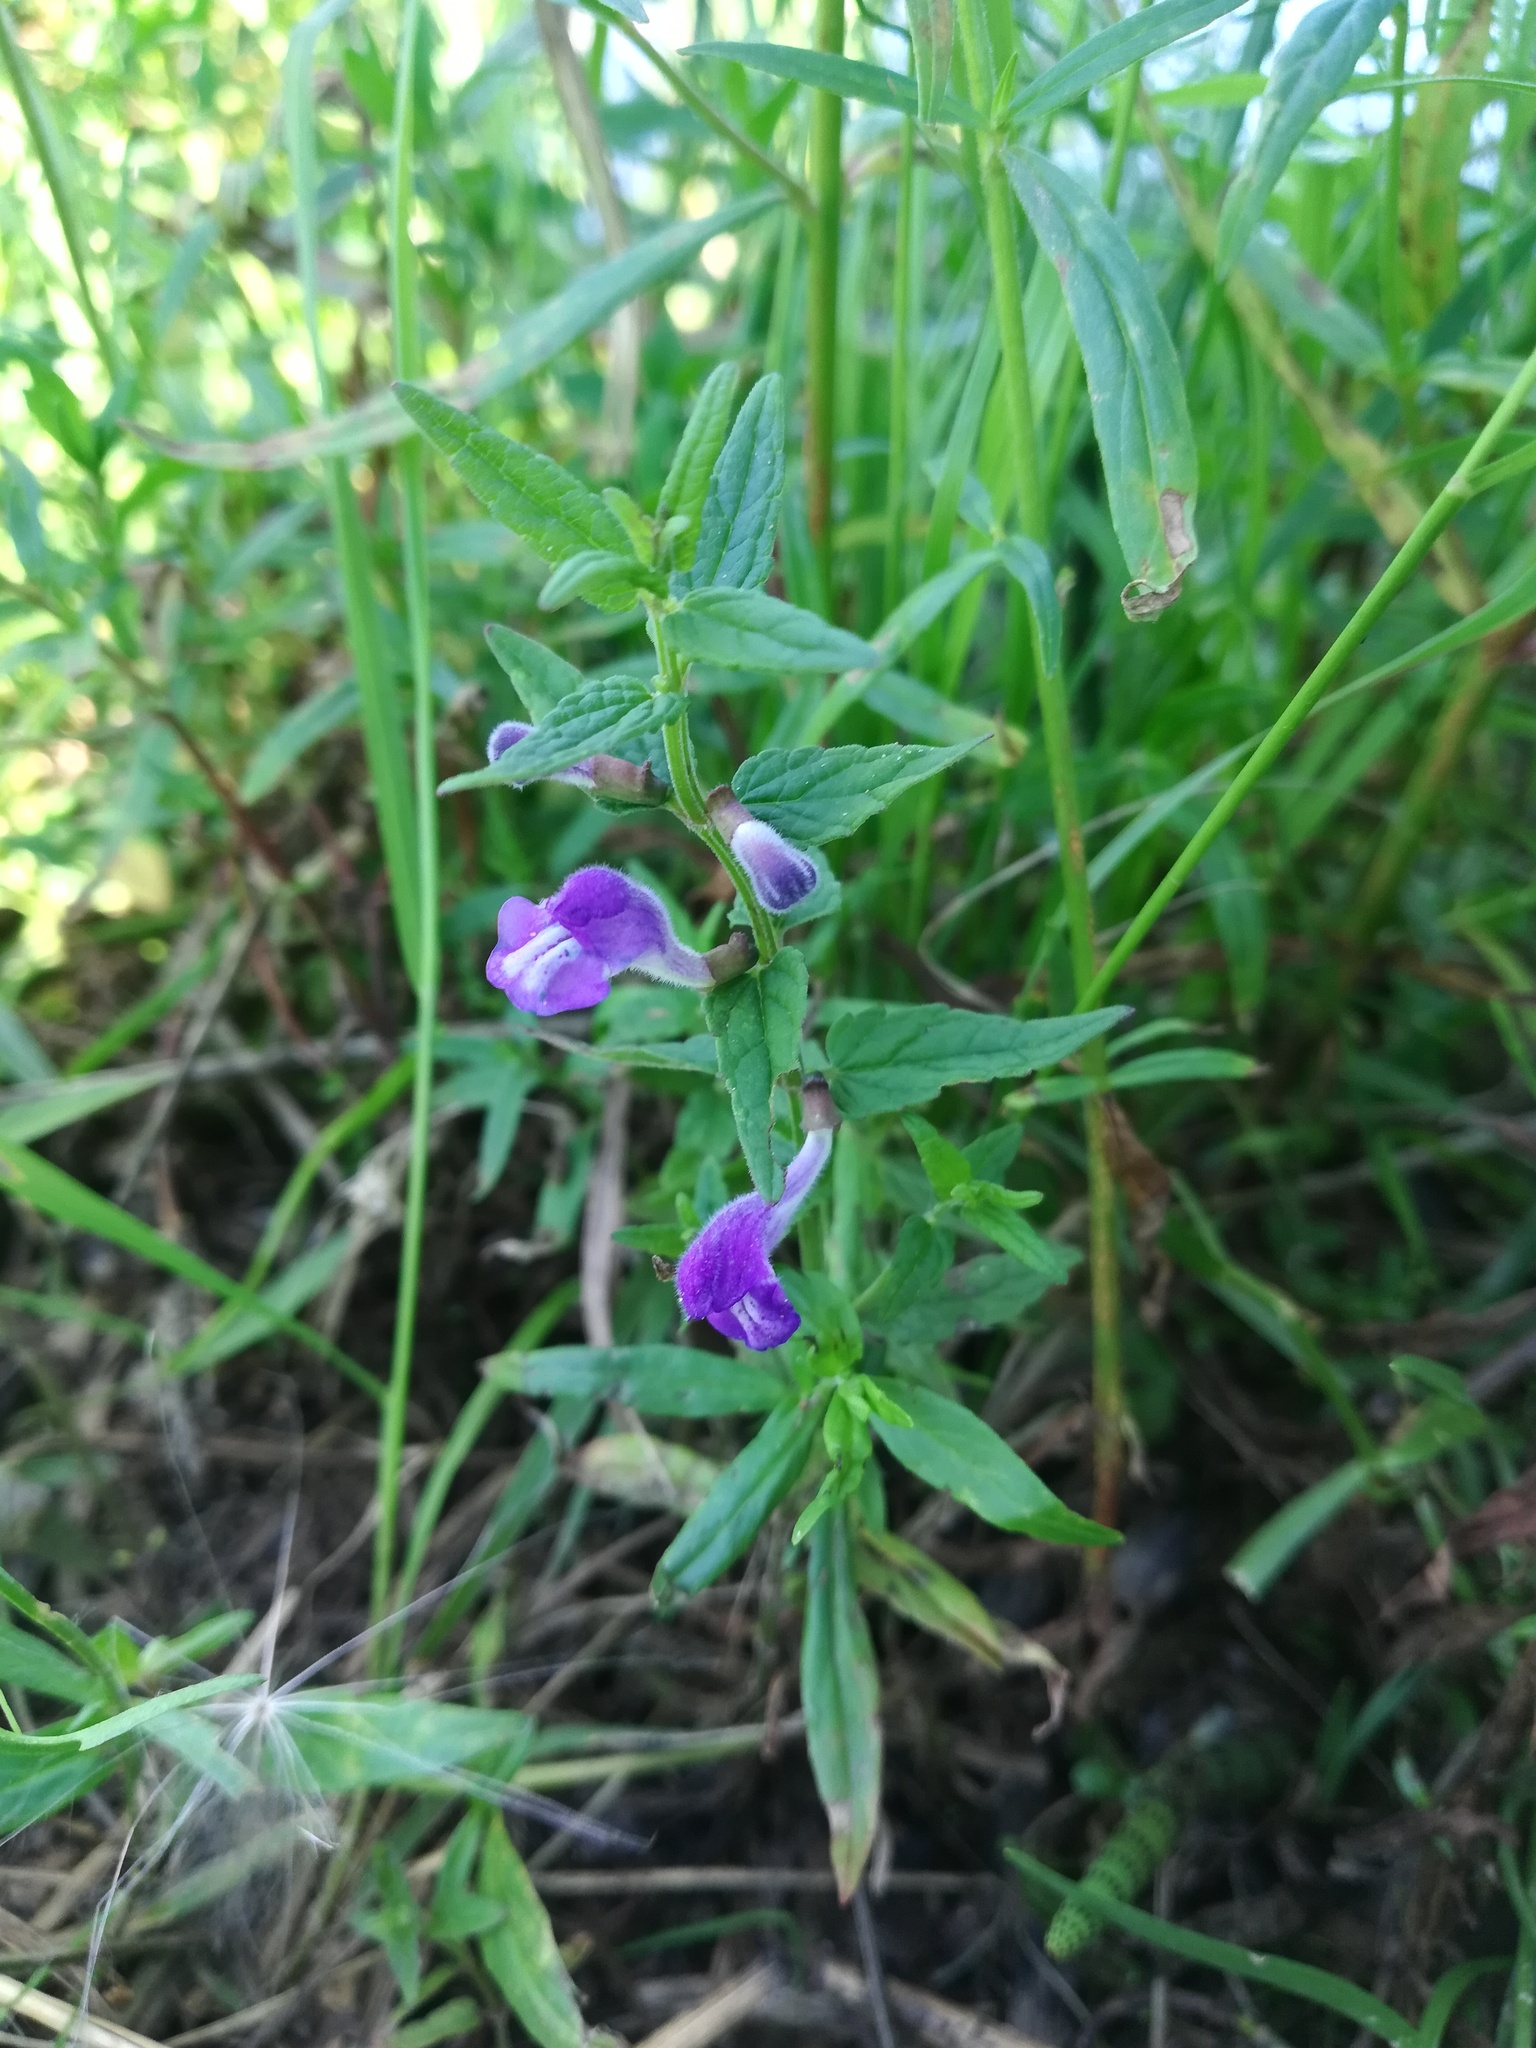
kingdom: Plantae
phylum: Tracheophyta
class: Magnoliopsida
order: Lamiales
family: Lamiaceae
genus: Scutellaria
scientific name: Scutellaria galericulata
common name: Skullcap
